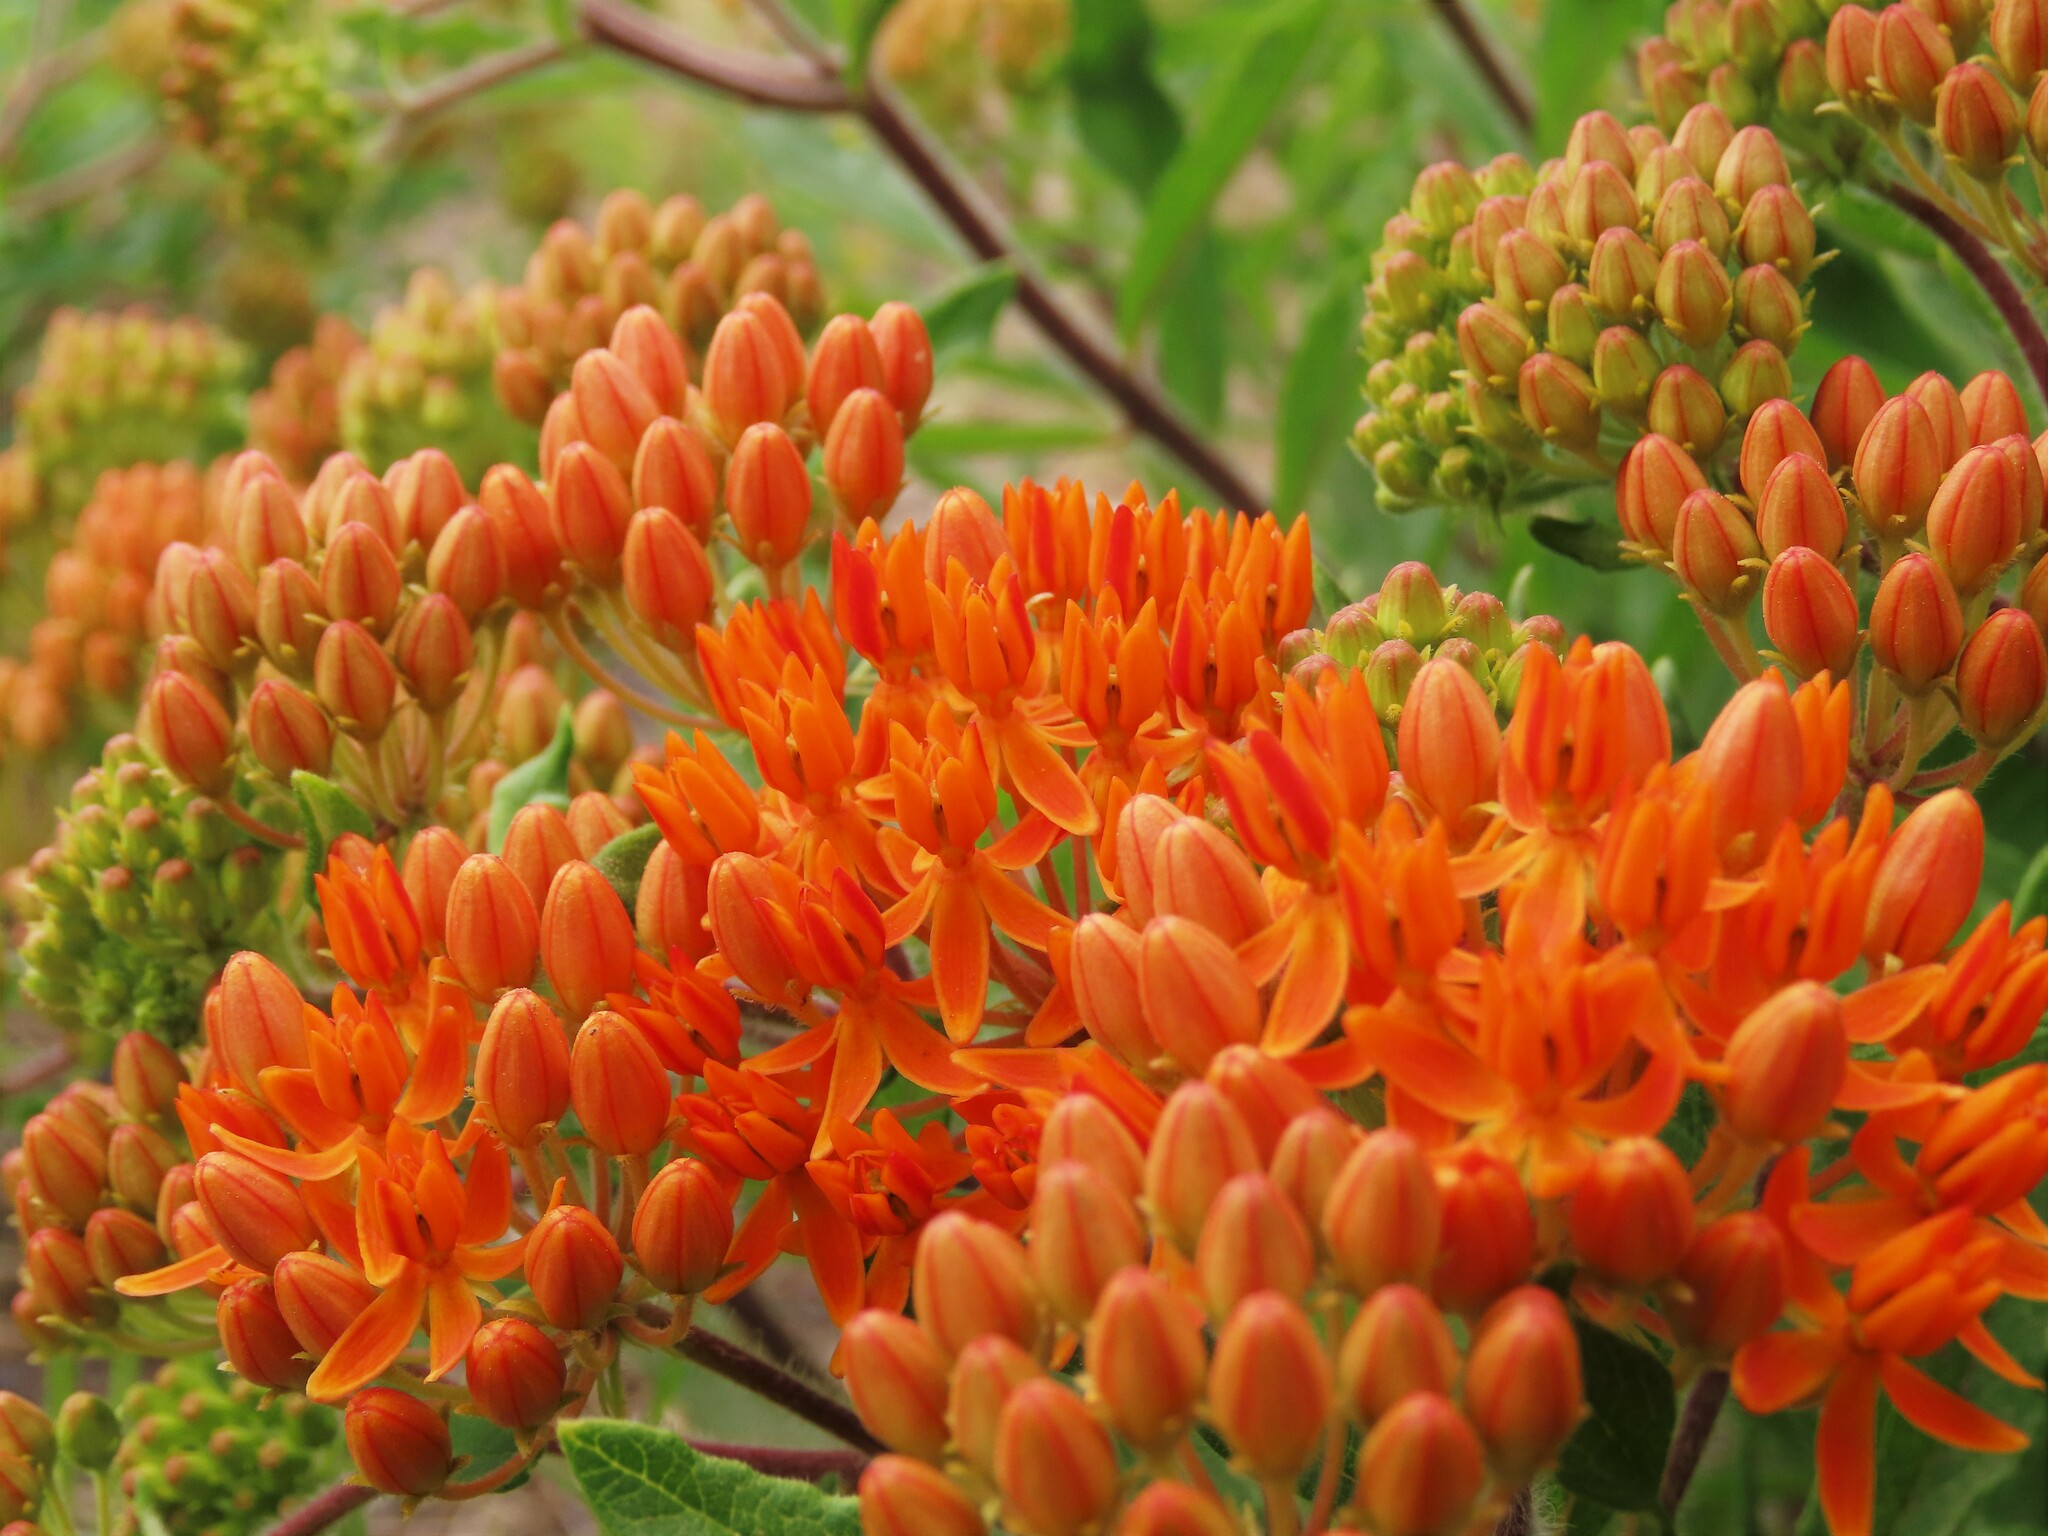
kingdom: Plantae
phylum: Tracheophyta
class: Magnoliopsida
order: Gentianales
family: Apocynaceae
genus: Asclepias
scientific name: Asclepias tuberosa
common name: Butterfly milkweed
